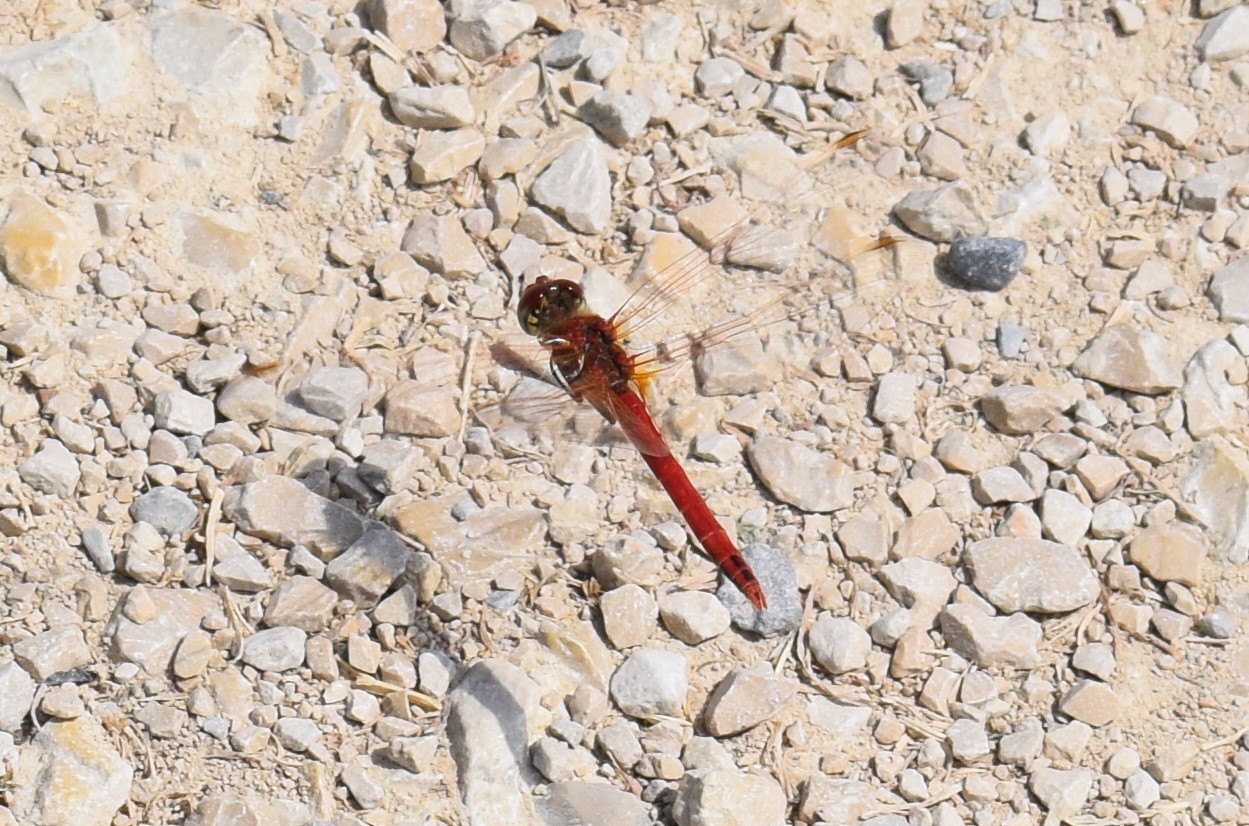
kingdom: Animalia
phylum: Arthropoda
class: Insecta
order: Odonata
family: Libellulidae
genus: Sympetrum
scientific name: Sympetrum fonscolombii
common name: Red-veined darter
